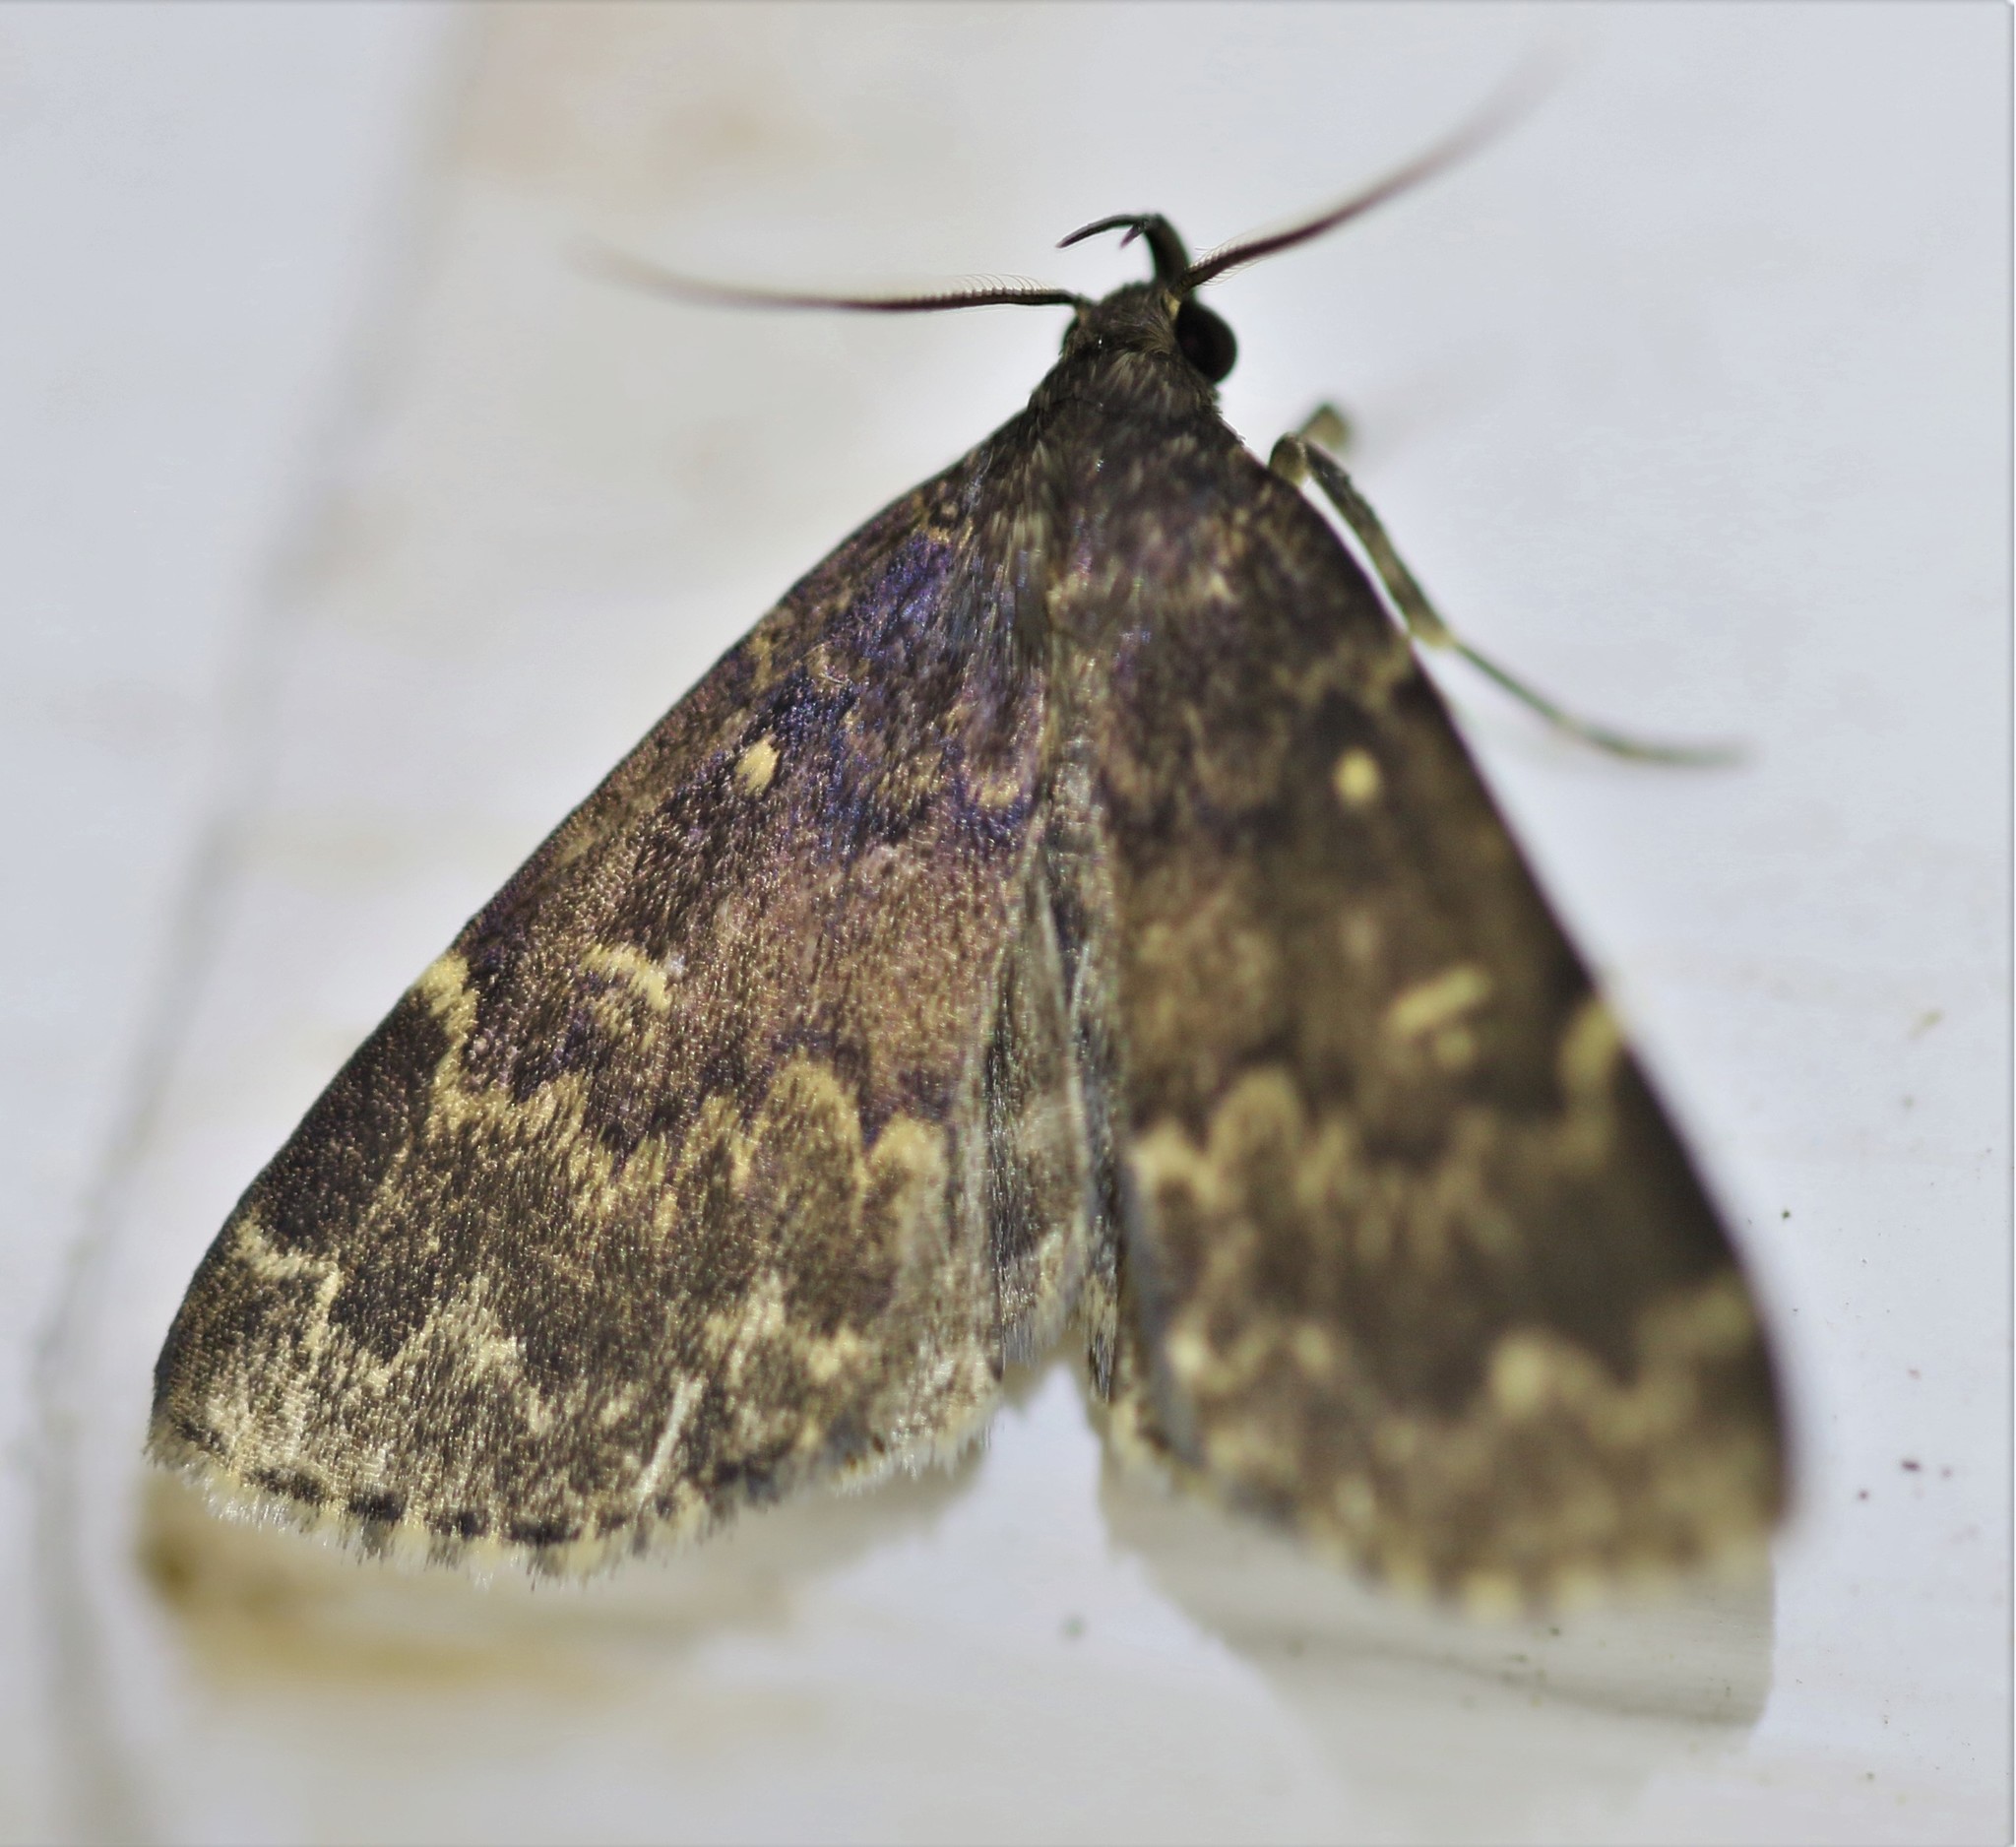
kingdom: Animalia
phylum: Arthropoda
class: Insecta
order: Lepidoptera
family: Erebidae
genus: Idia
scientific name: Idia lubricalis
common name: Twin-striped tabby
